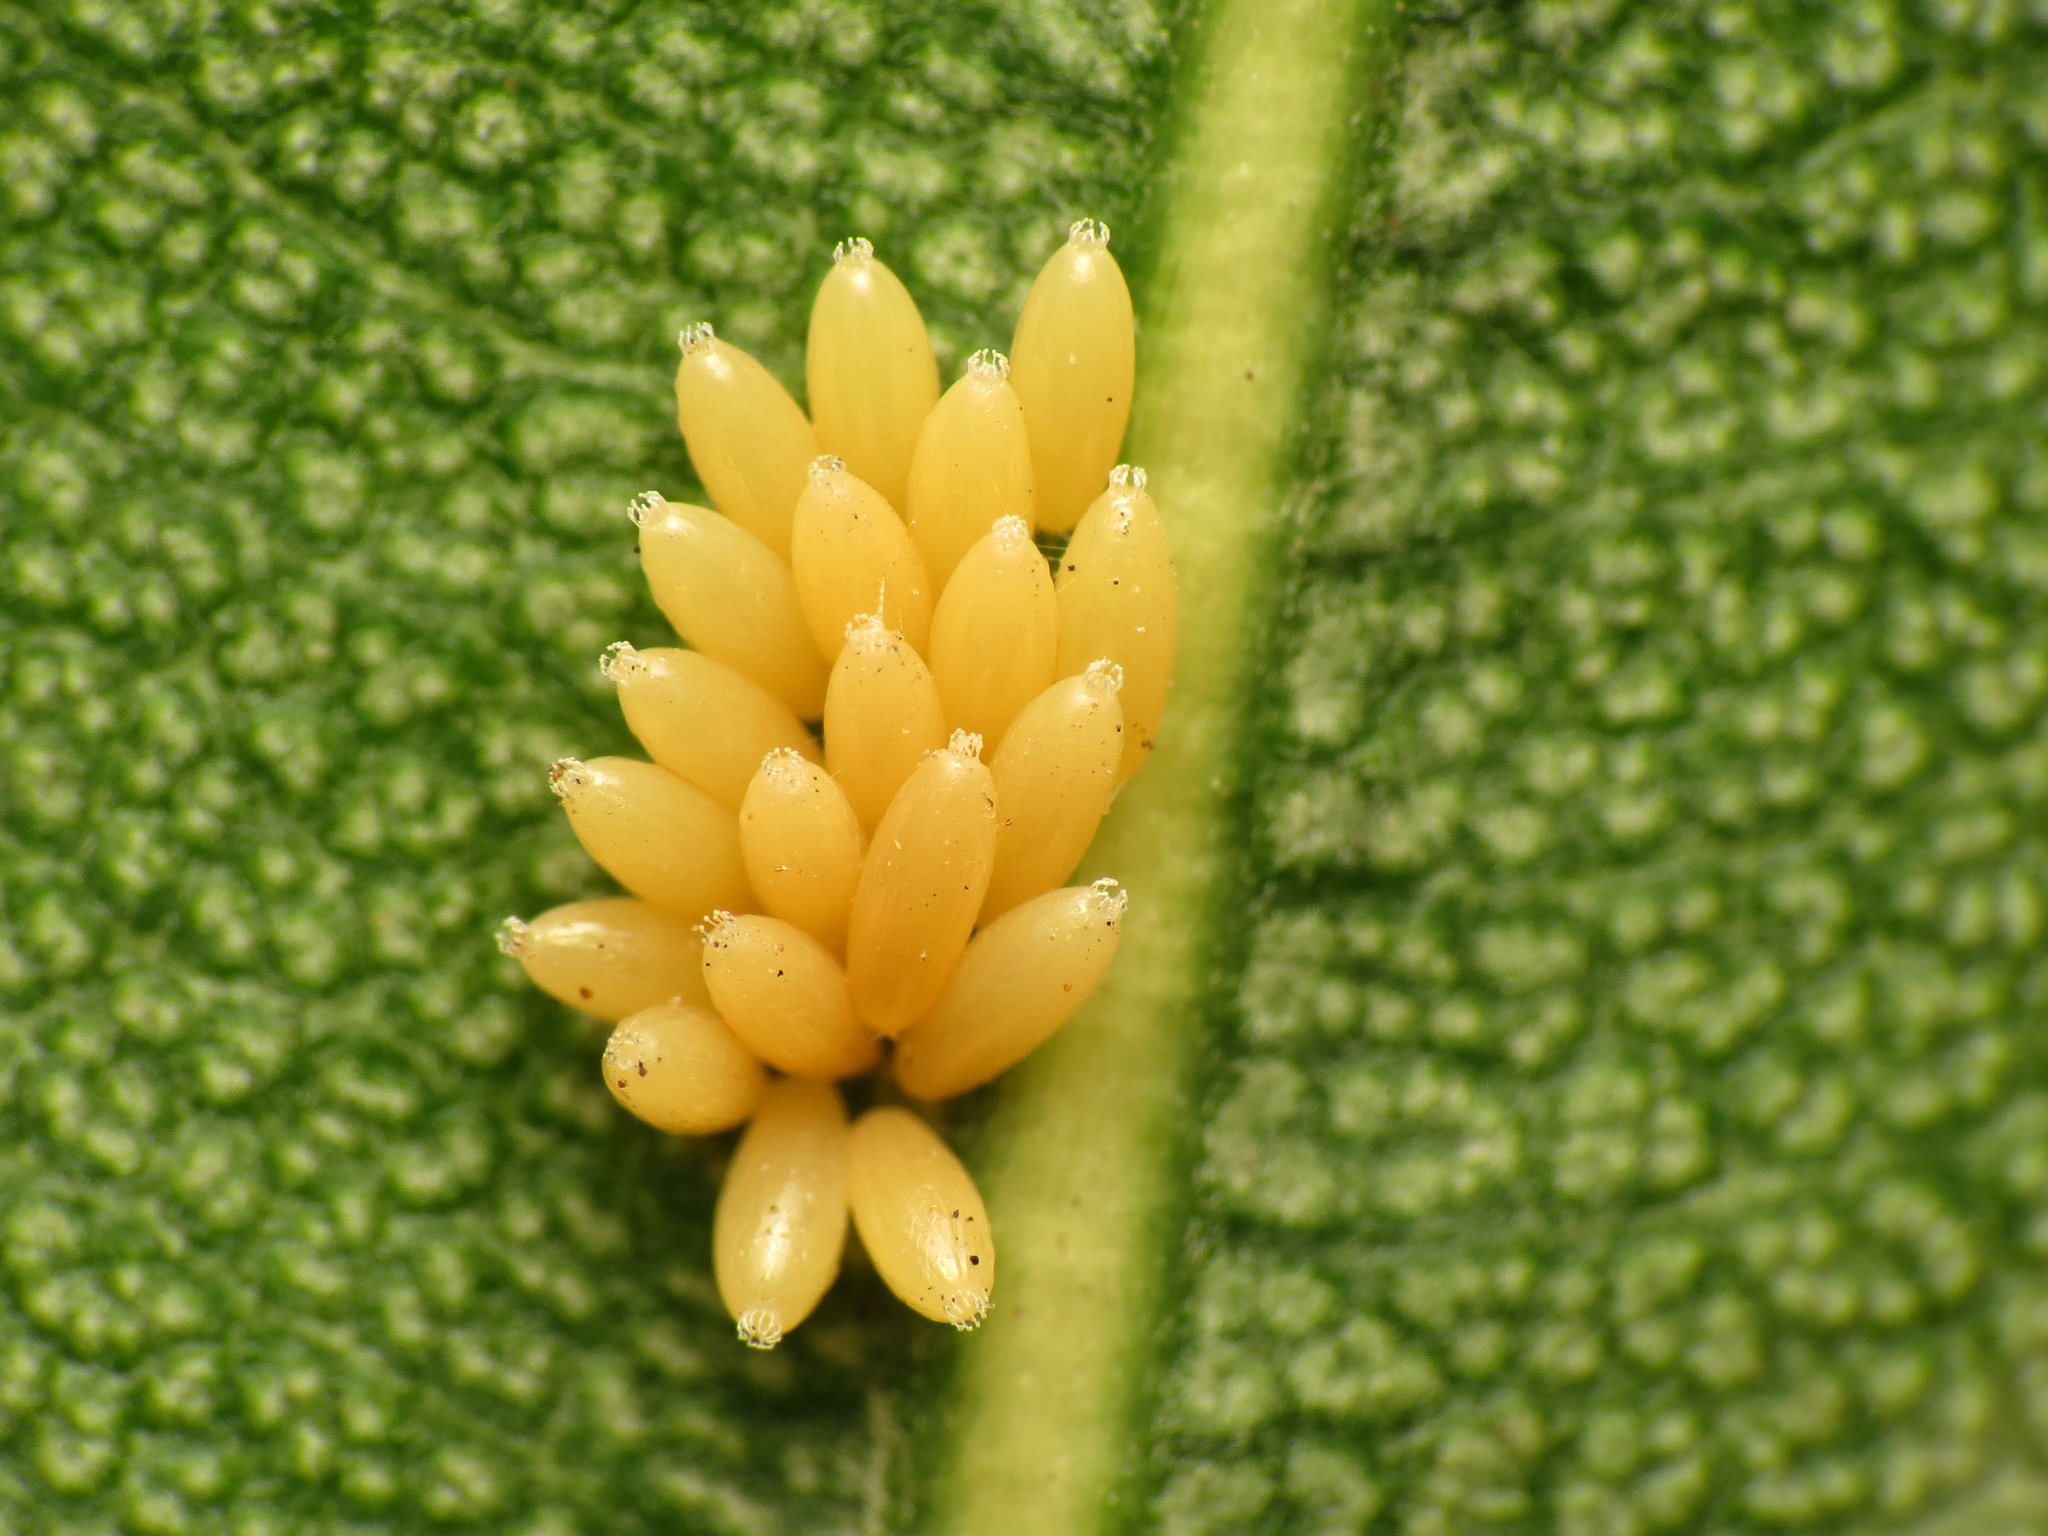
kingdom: Animalia
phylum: Arthropoda
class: Insecta
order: Hemiptera
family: Lygaeidae
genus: Caenocoris
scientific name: Caenocoris nerii
